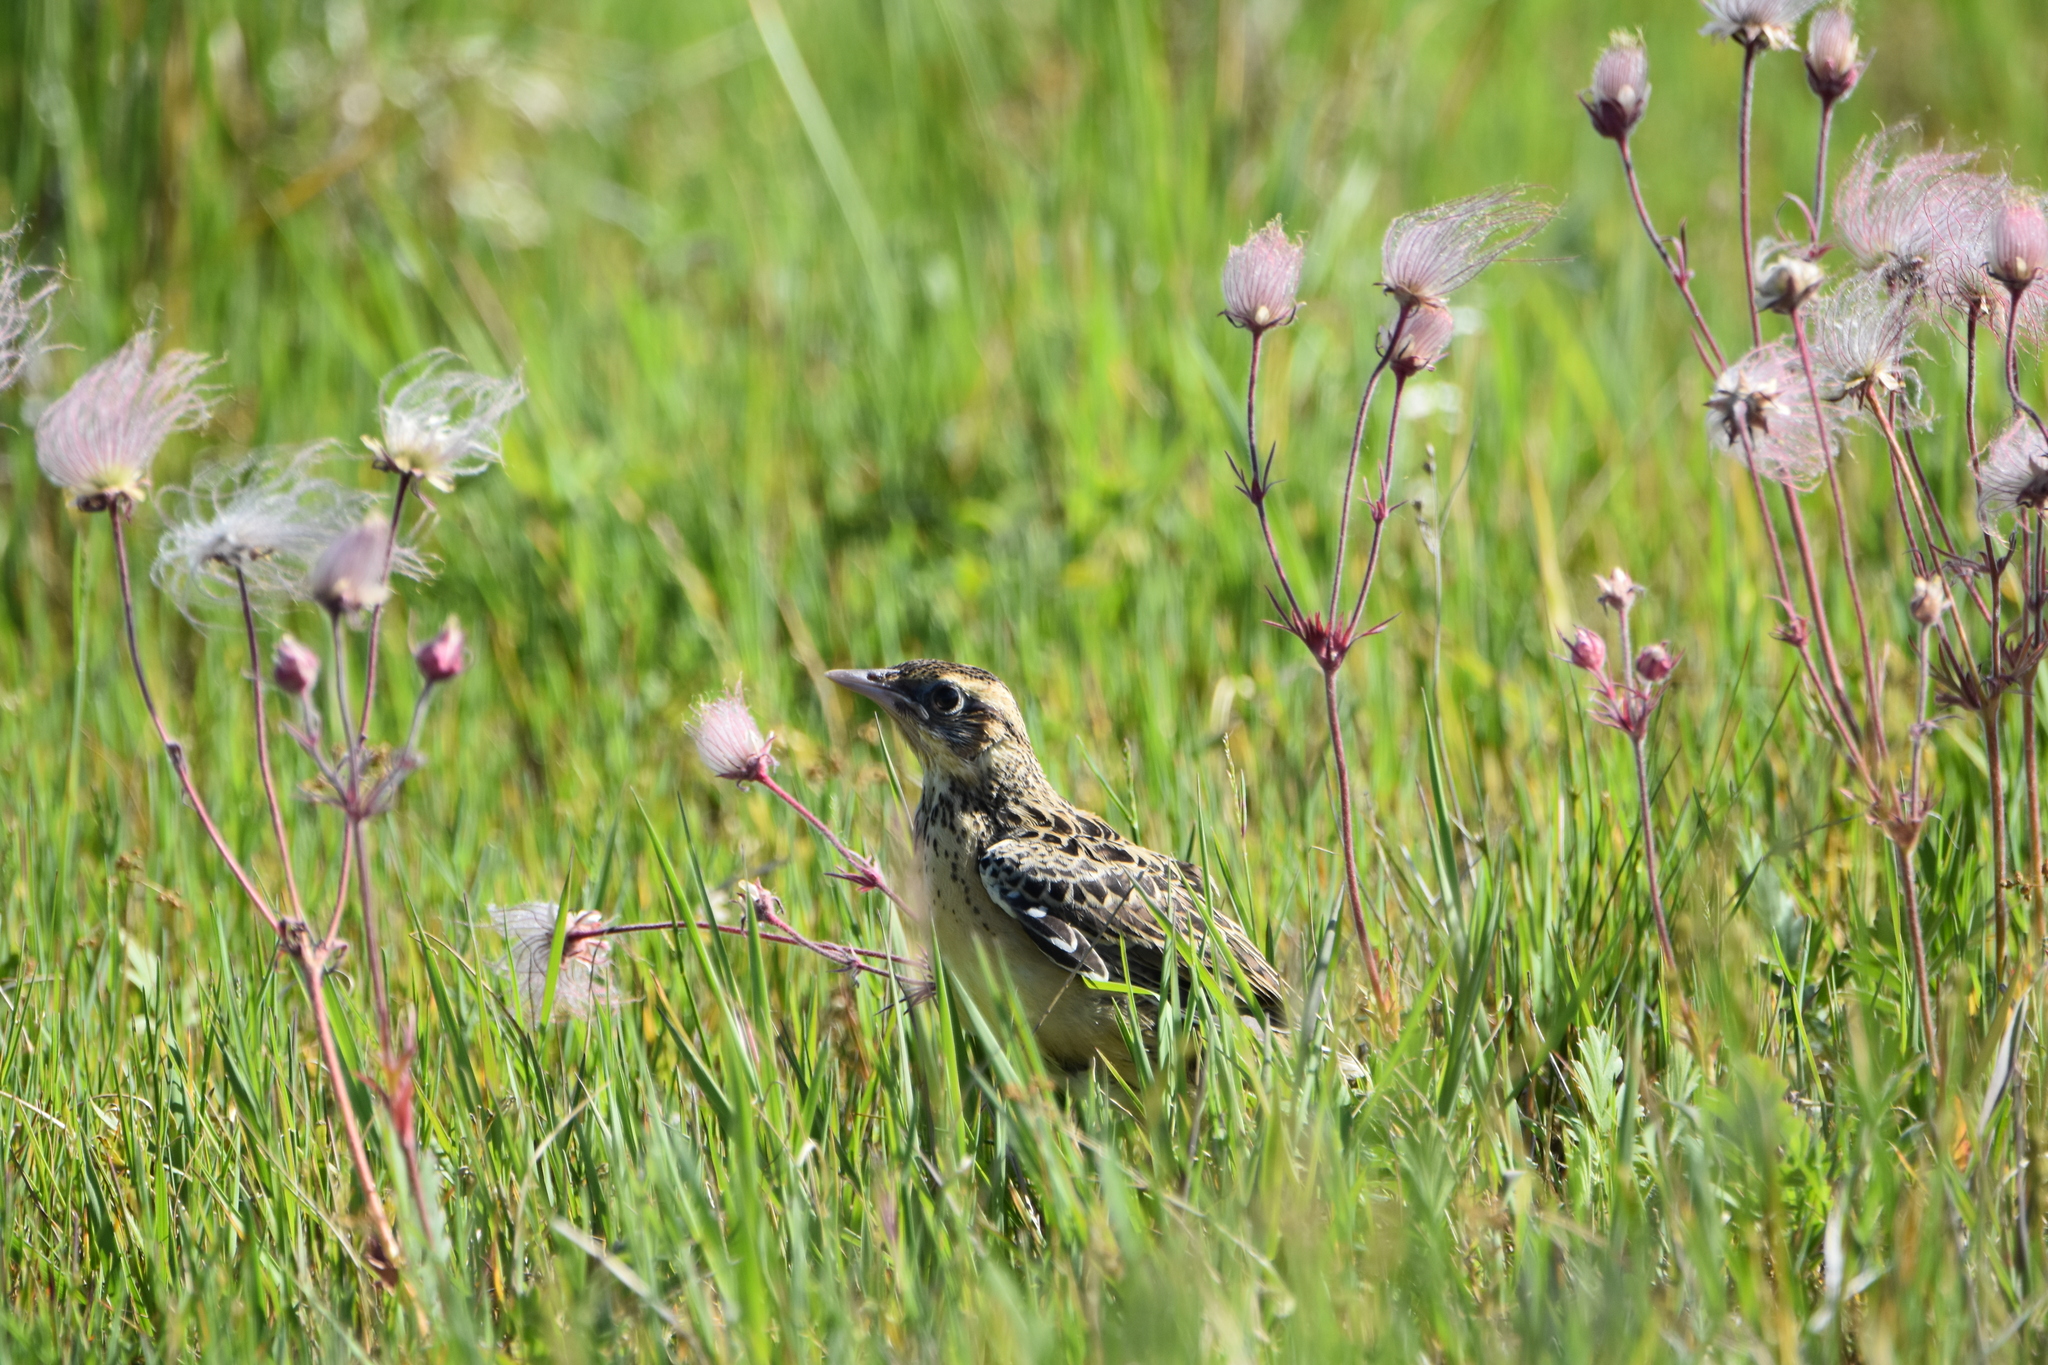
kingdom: Animalia
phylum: Chordata
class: Aves
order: Passeriformes
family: Icteridae
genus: Sturnella
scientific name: Sturnella magna
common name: Eastern meadowlark
